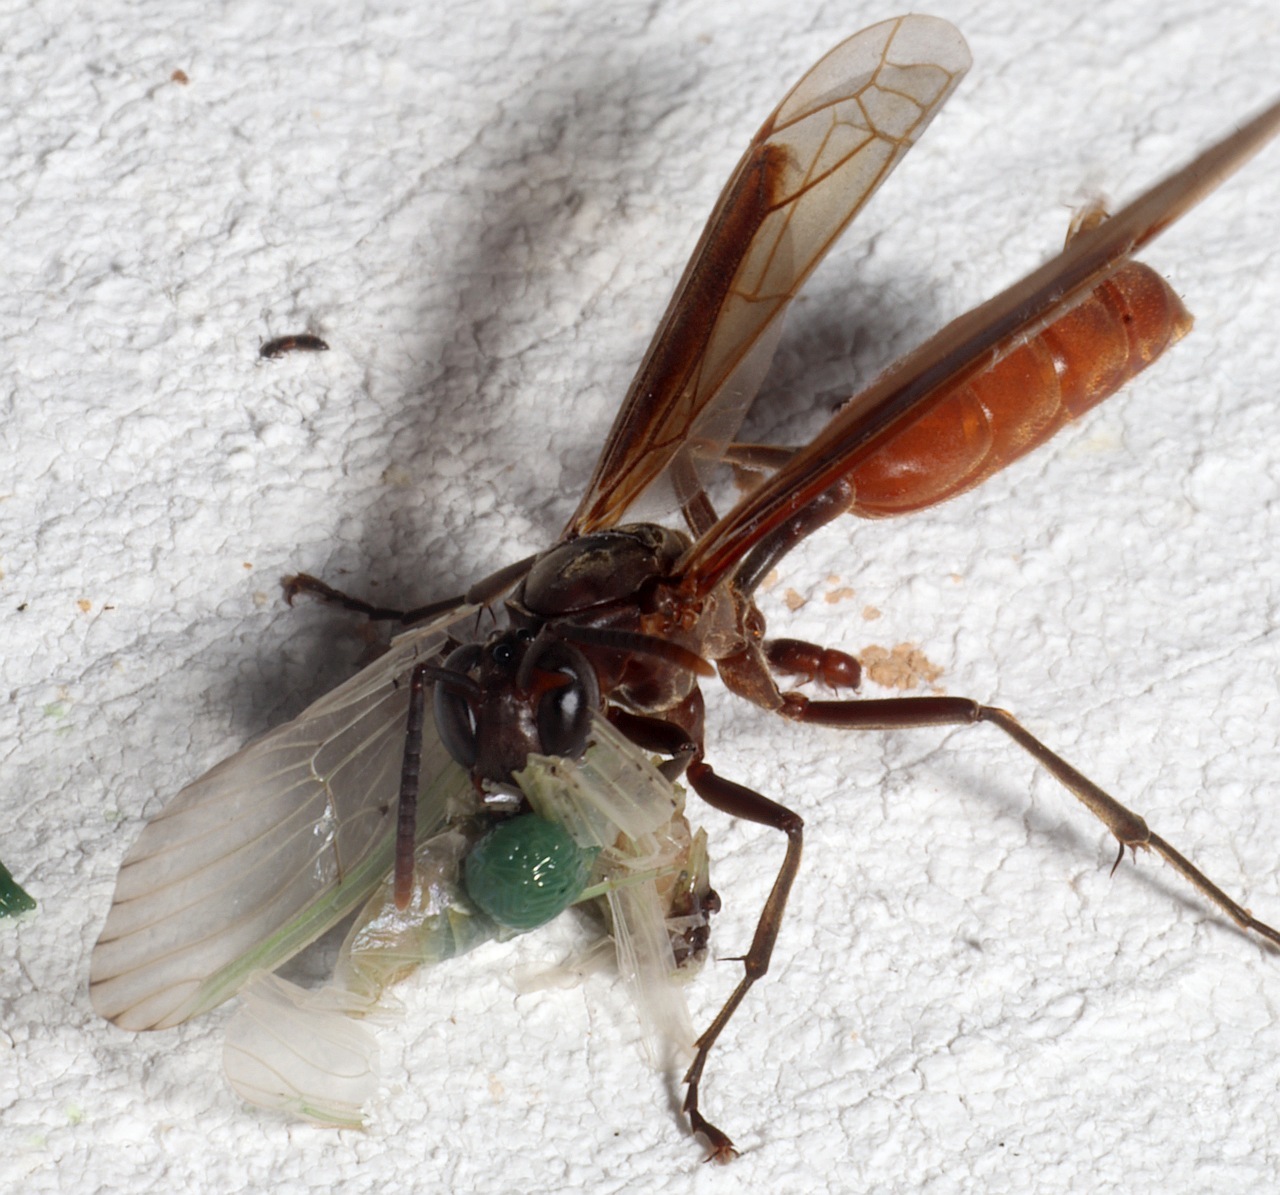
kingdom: Animalia
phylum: Arthropoda
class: Insecta
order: Hymenoptera
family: Vespidae
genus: Apoica
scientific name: Apoica thoracica
